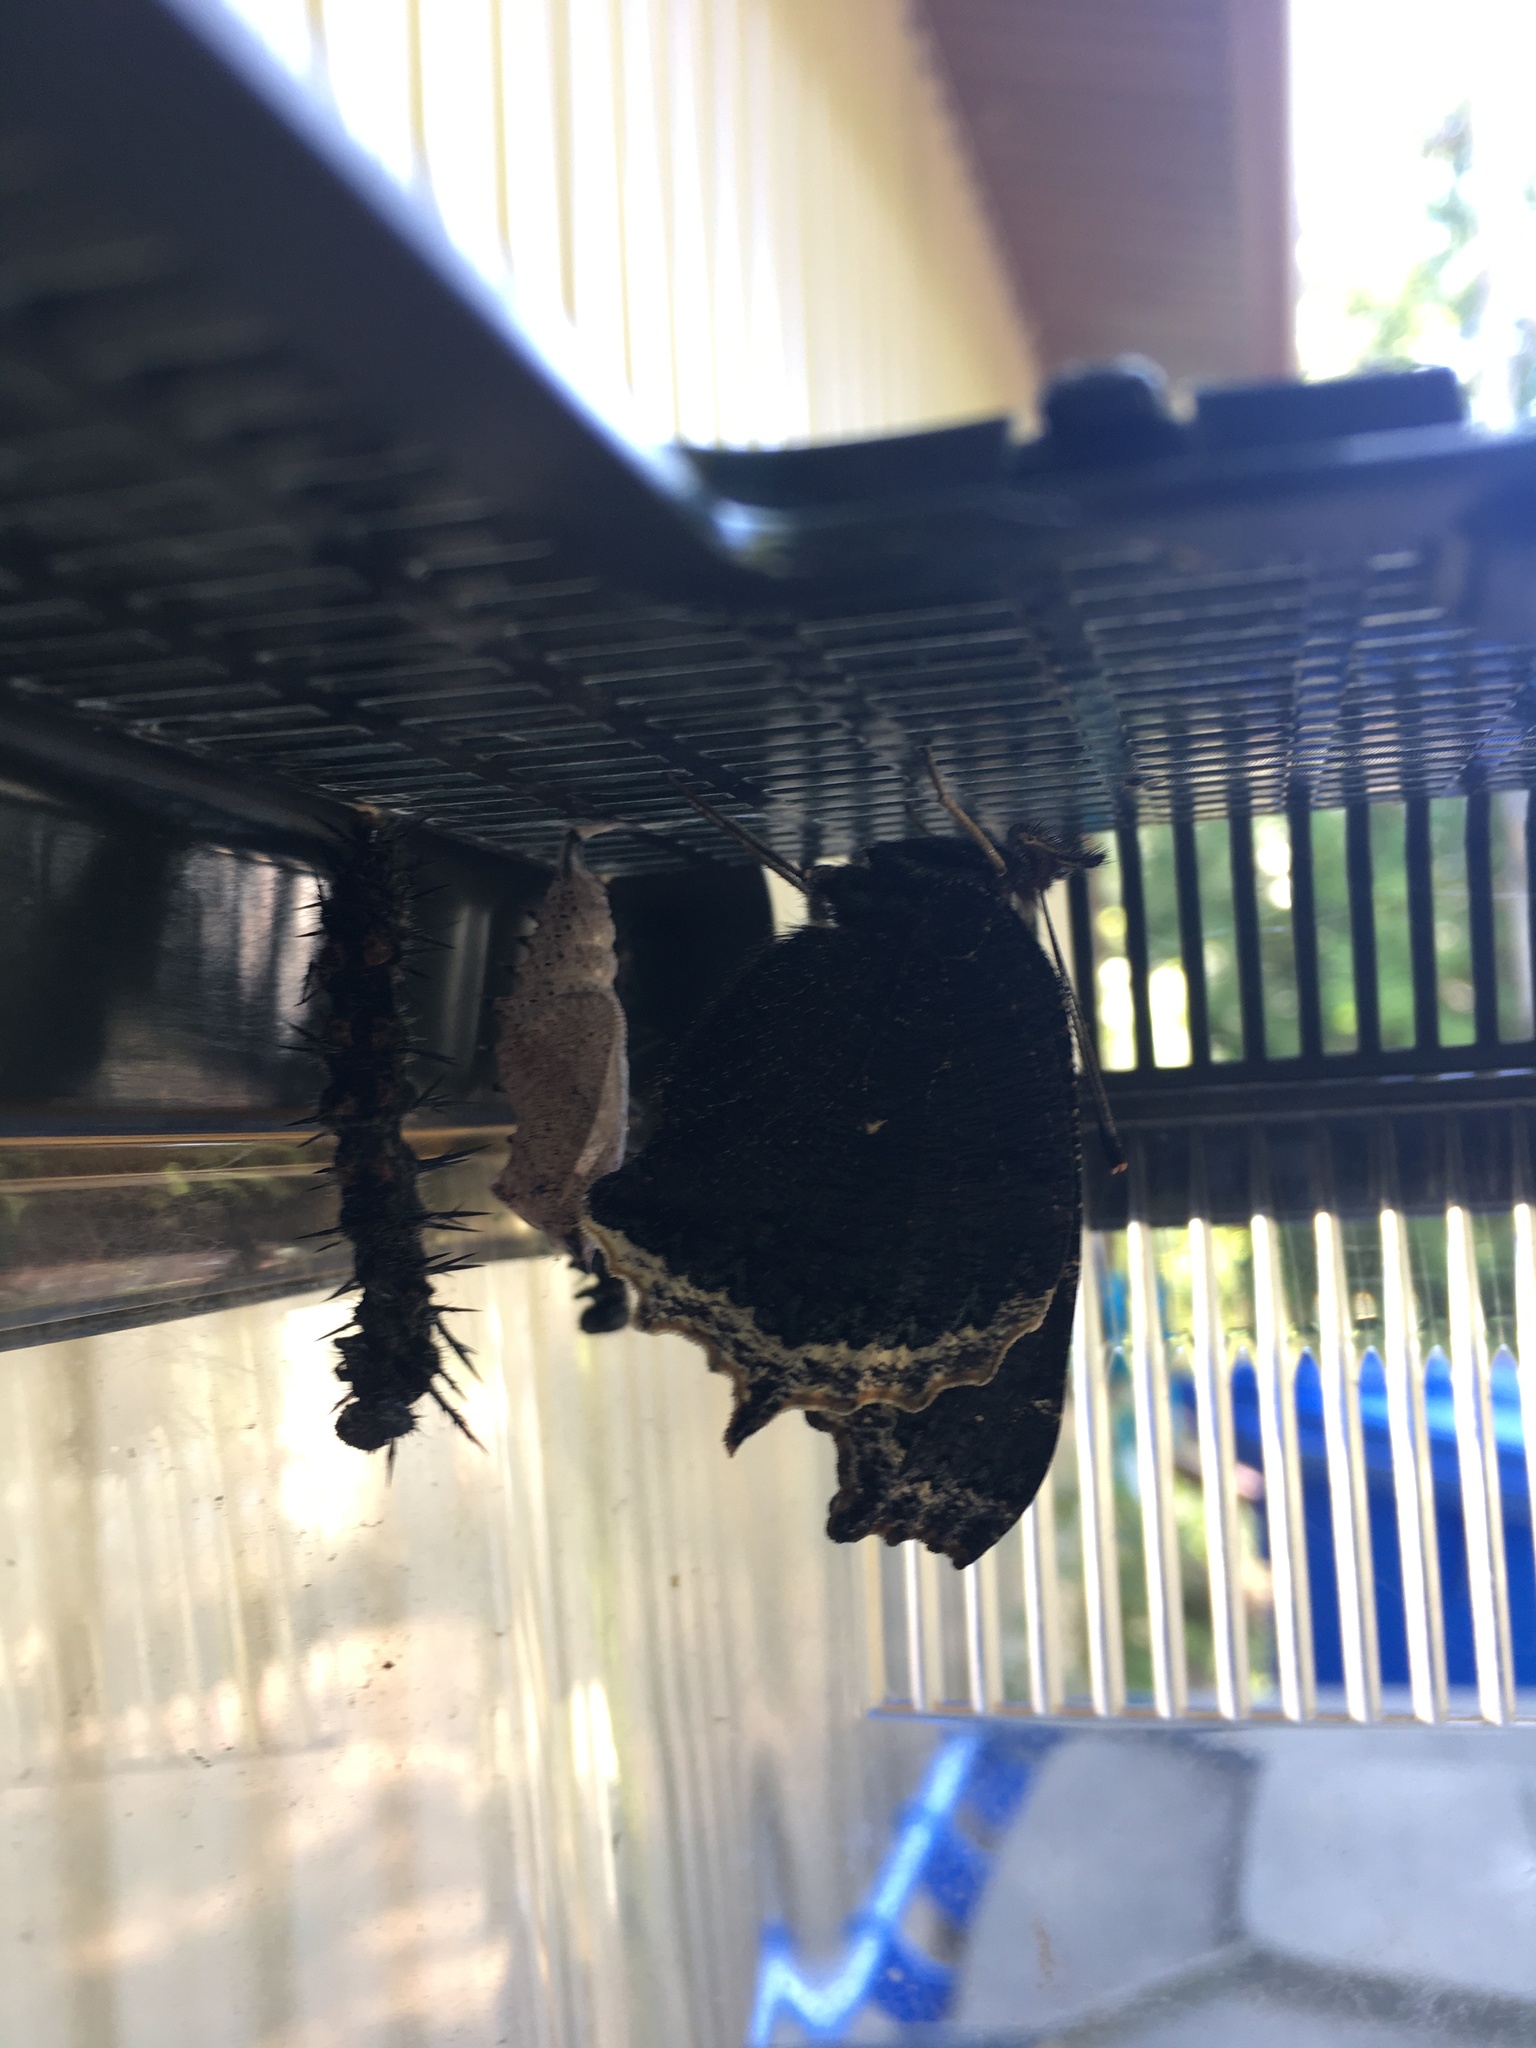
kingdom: Animalia
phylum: Arthropoda
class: Insecta
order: Lepidoptera
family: Nymphalidae
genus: Nymphalis
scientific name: Nymphalis antiopa
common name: Camberwell beauty
